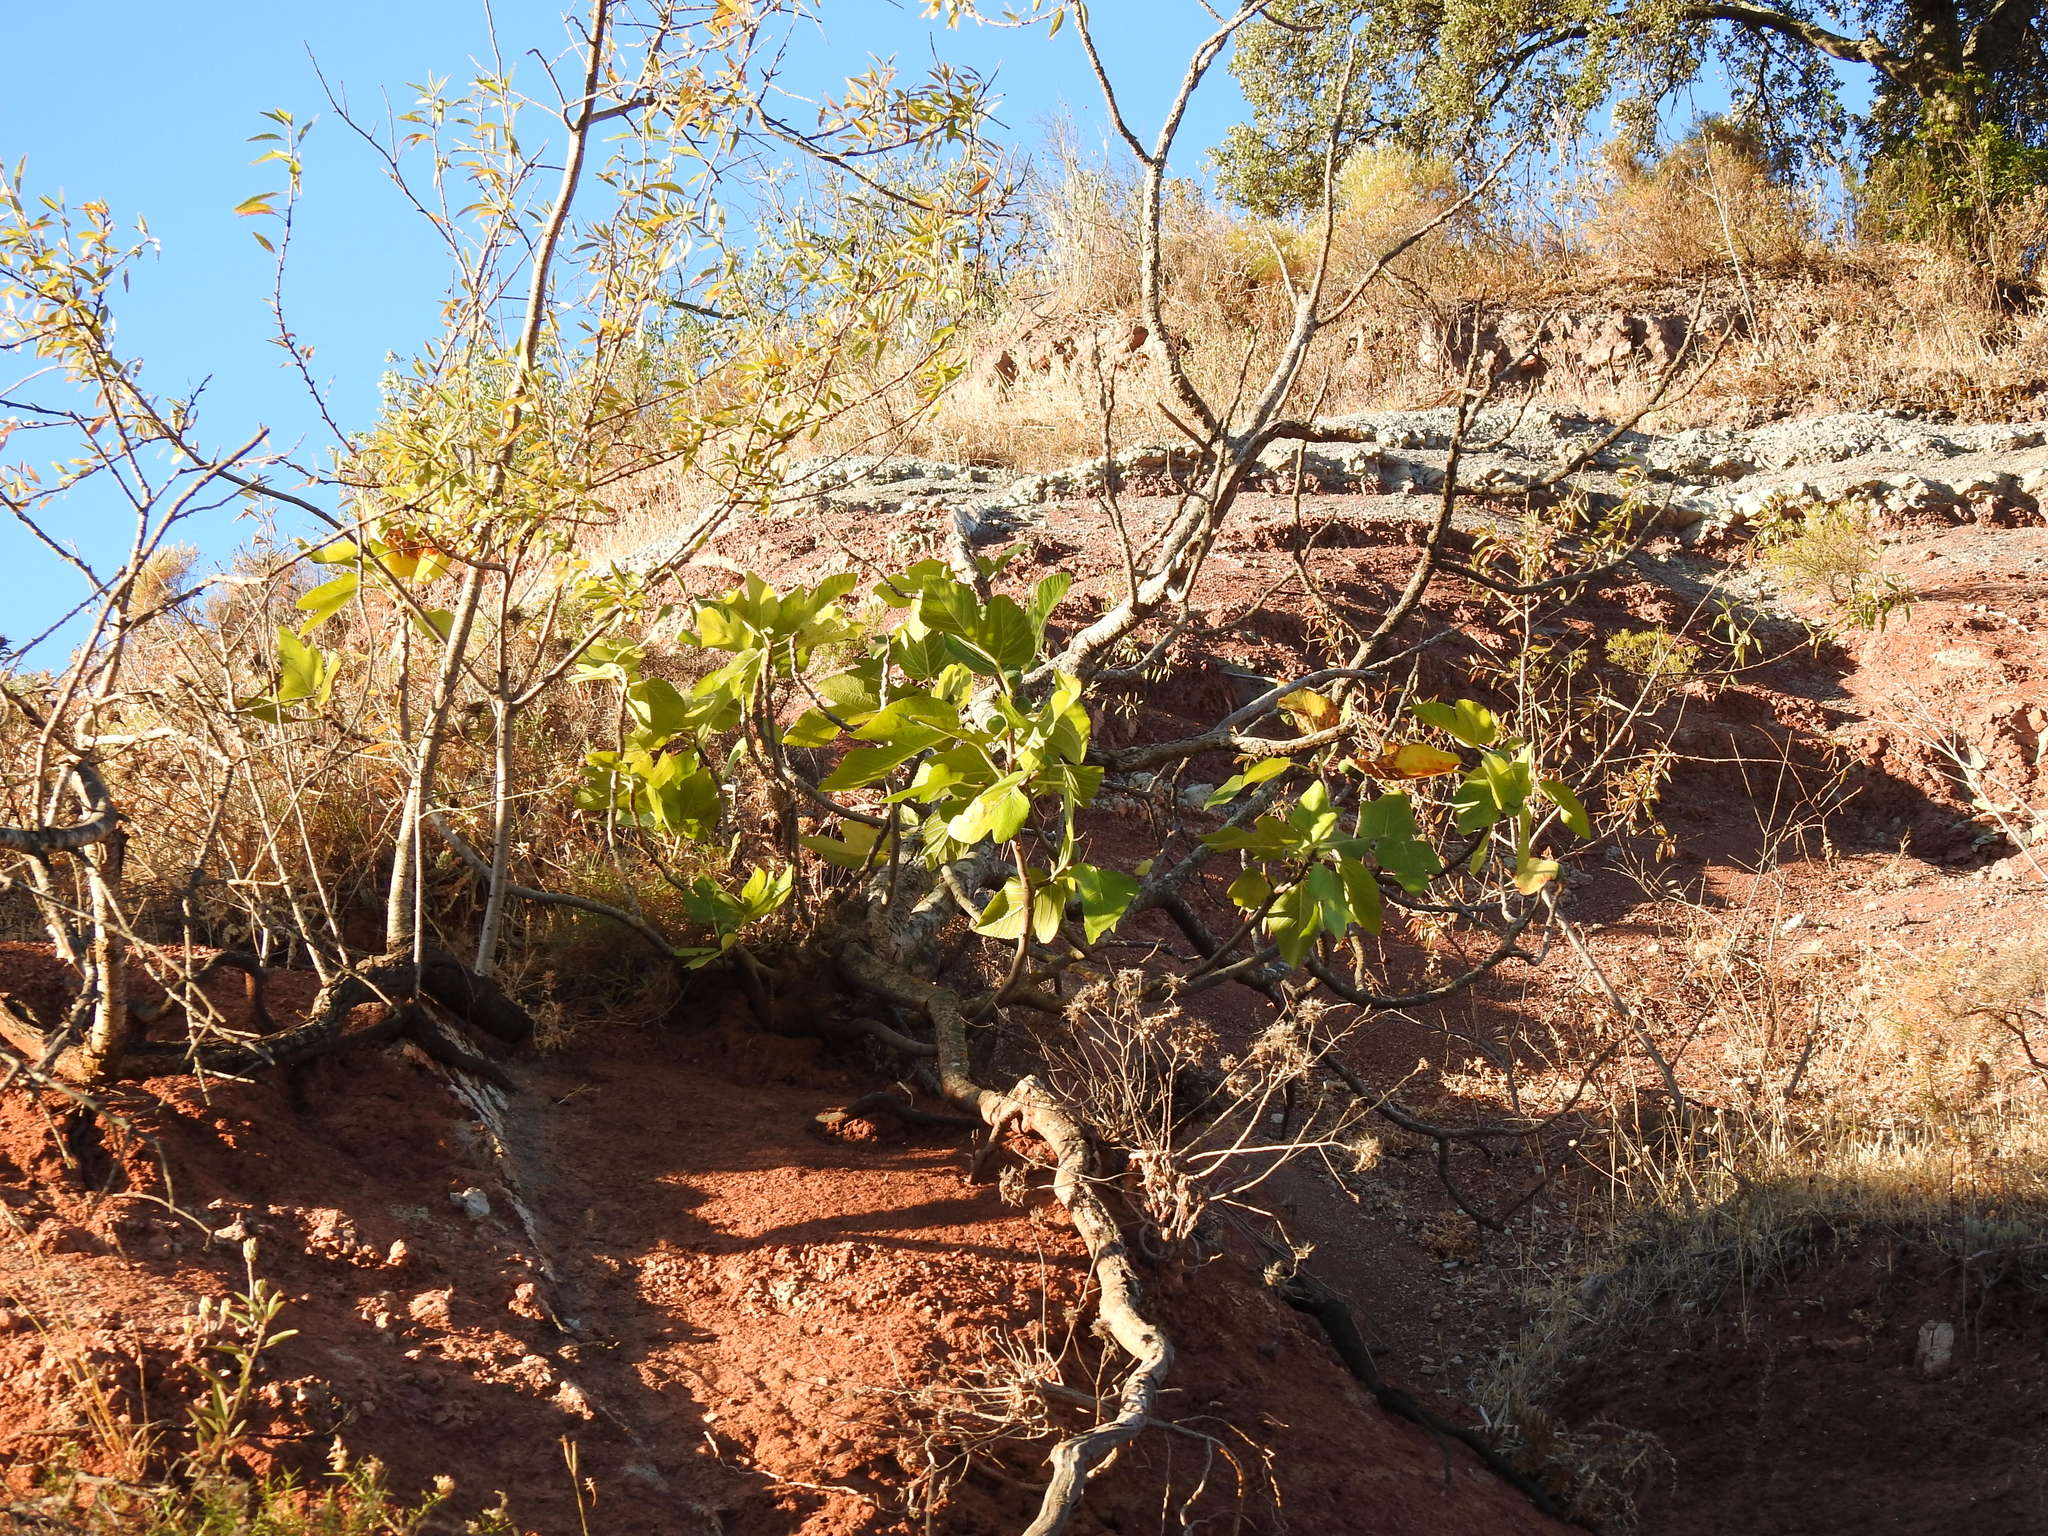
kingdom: Plantae
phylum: Tracheophyta
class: Magnoliopsida
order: Rosales
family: Moraceae
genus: Ficus
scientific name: Ficus carica
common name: Fig
